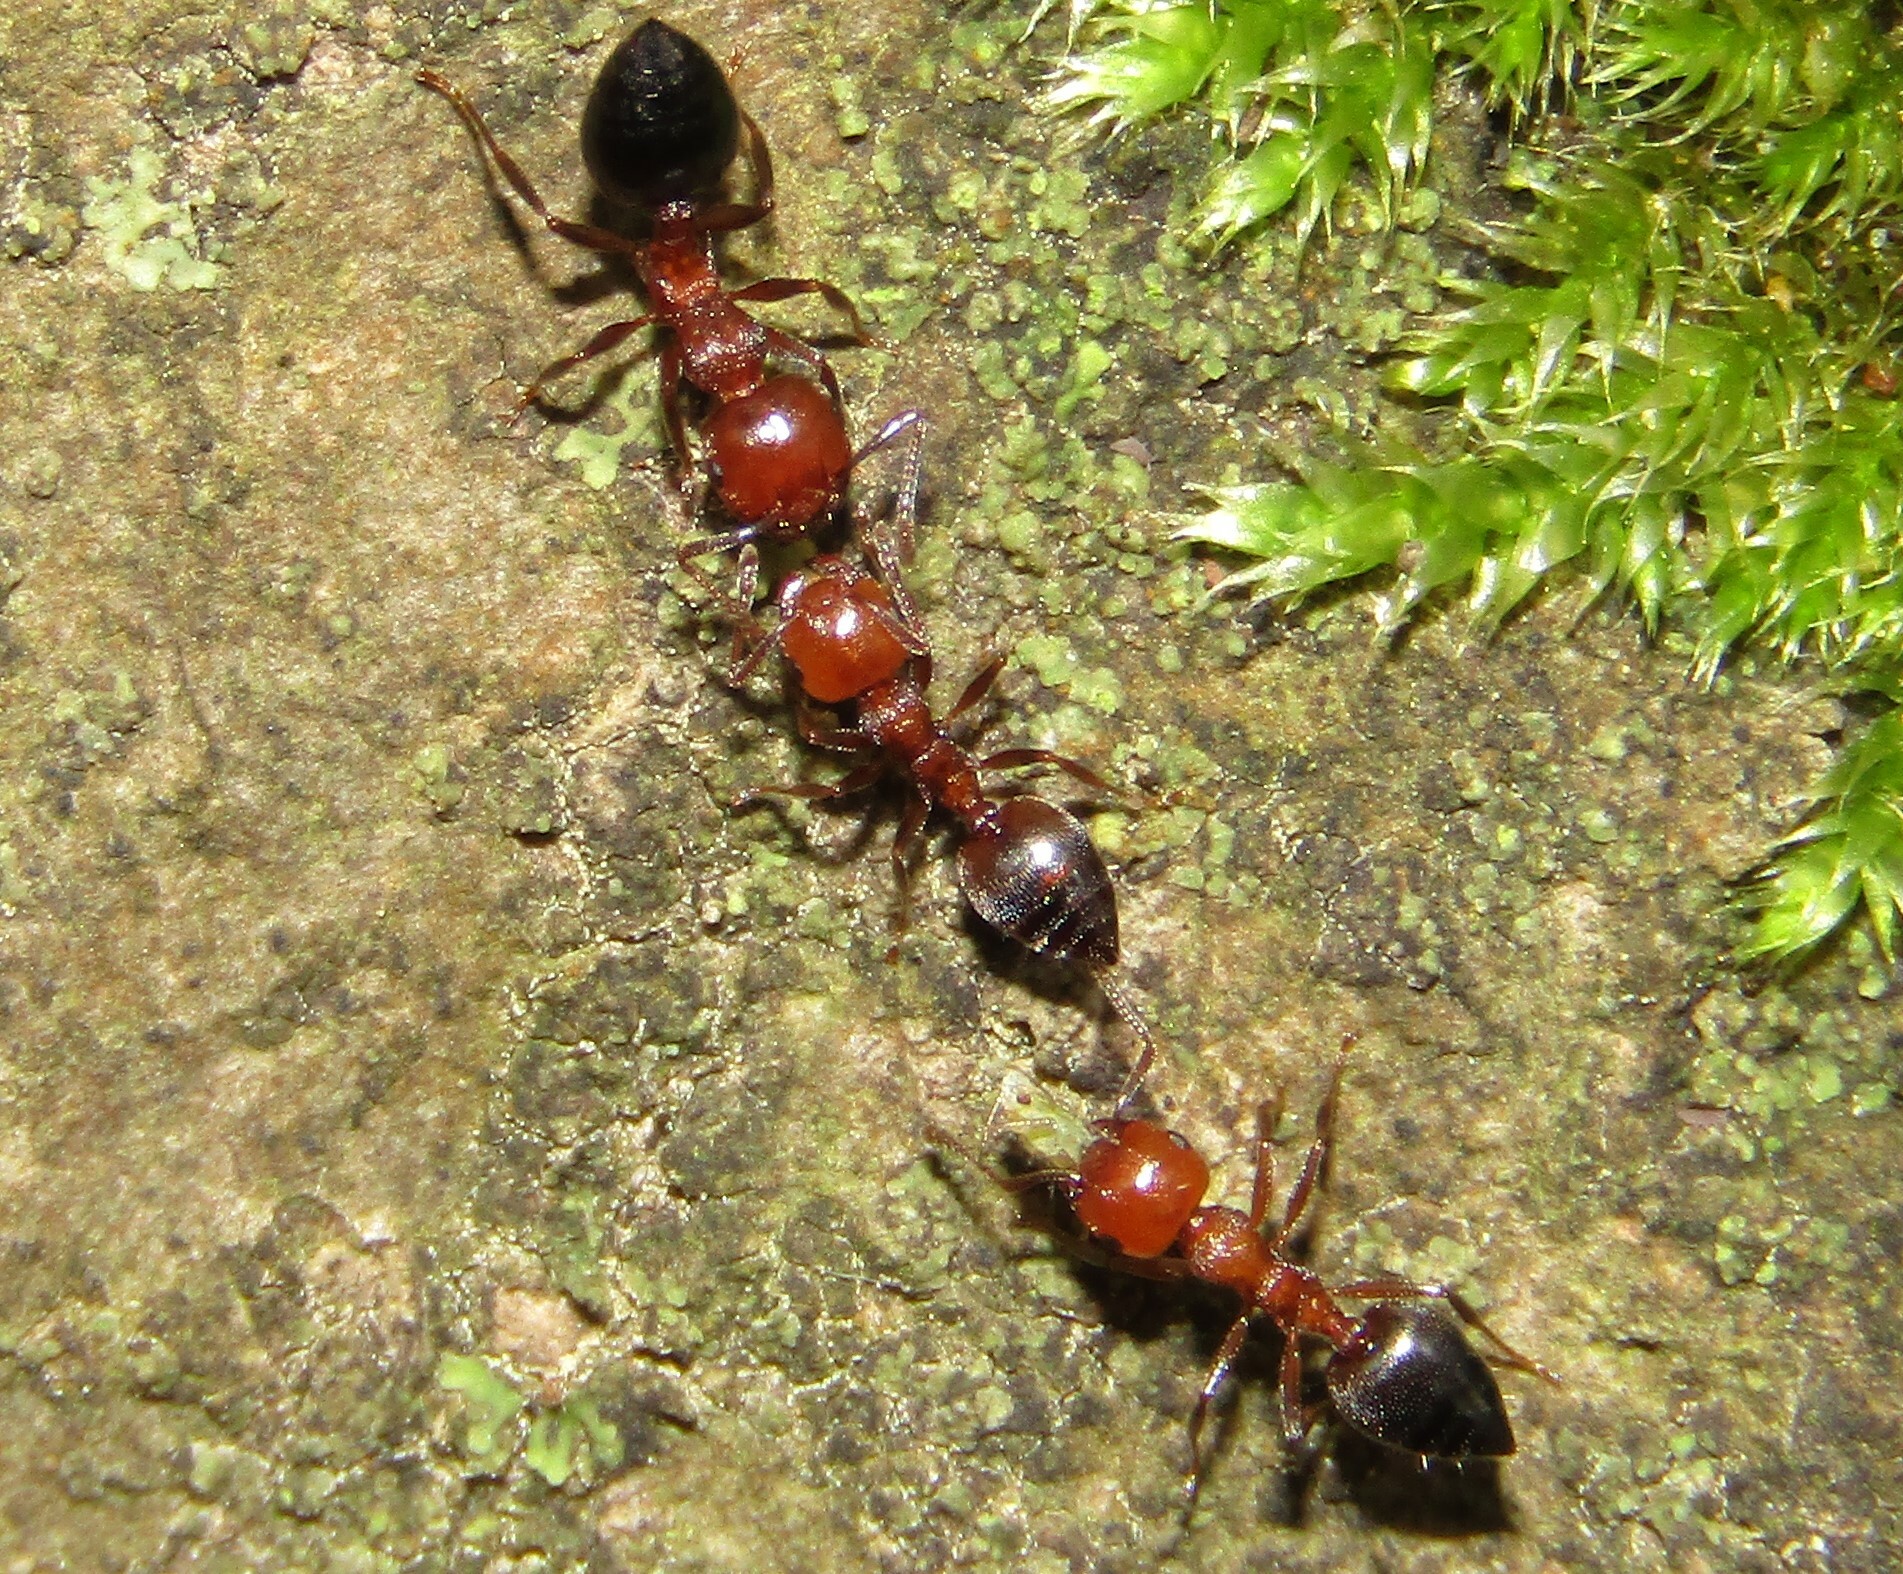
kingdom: Animalia
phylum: Arthropoda
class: Insecta
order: Hymenoptera
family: Formicidae
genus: Crematogaster
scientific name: Crematogaster schmidti
